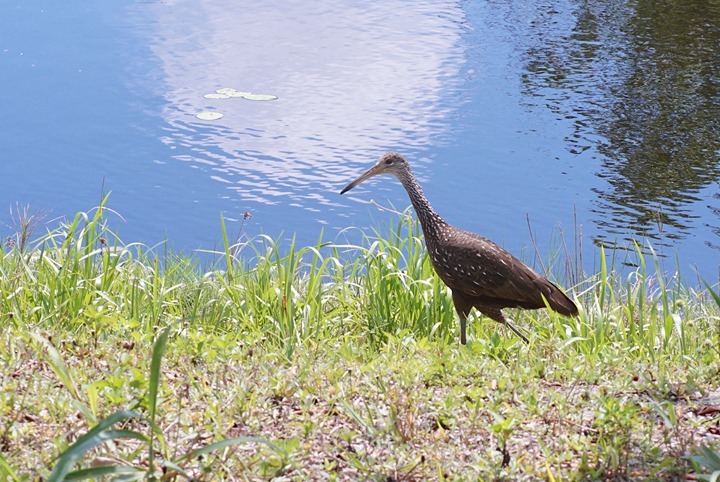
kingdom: Animalia
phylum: Chordata
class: Aves
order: Gruiformes
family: Aramidae
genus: Aramus
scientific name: Aramus guarauna
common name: Limpkin
